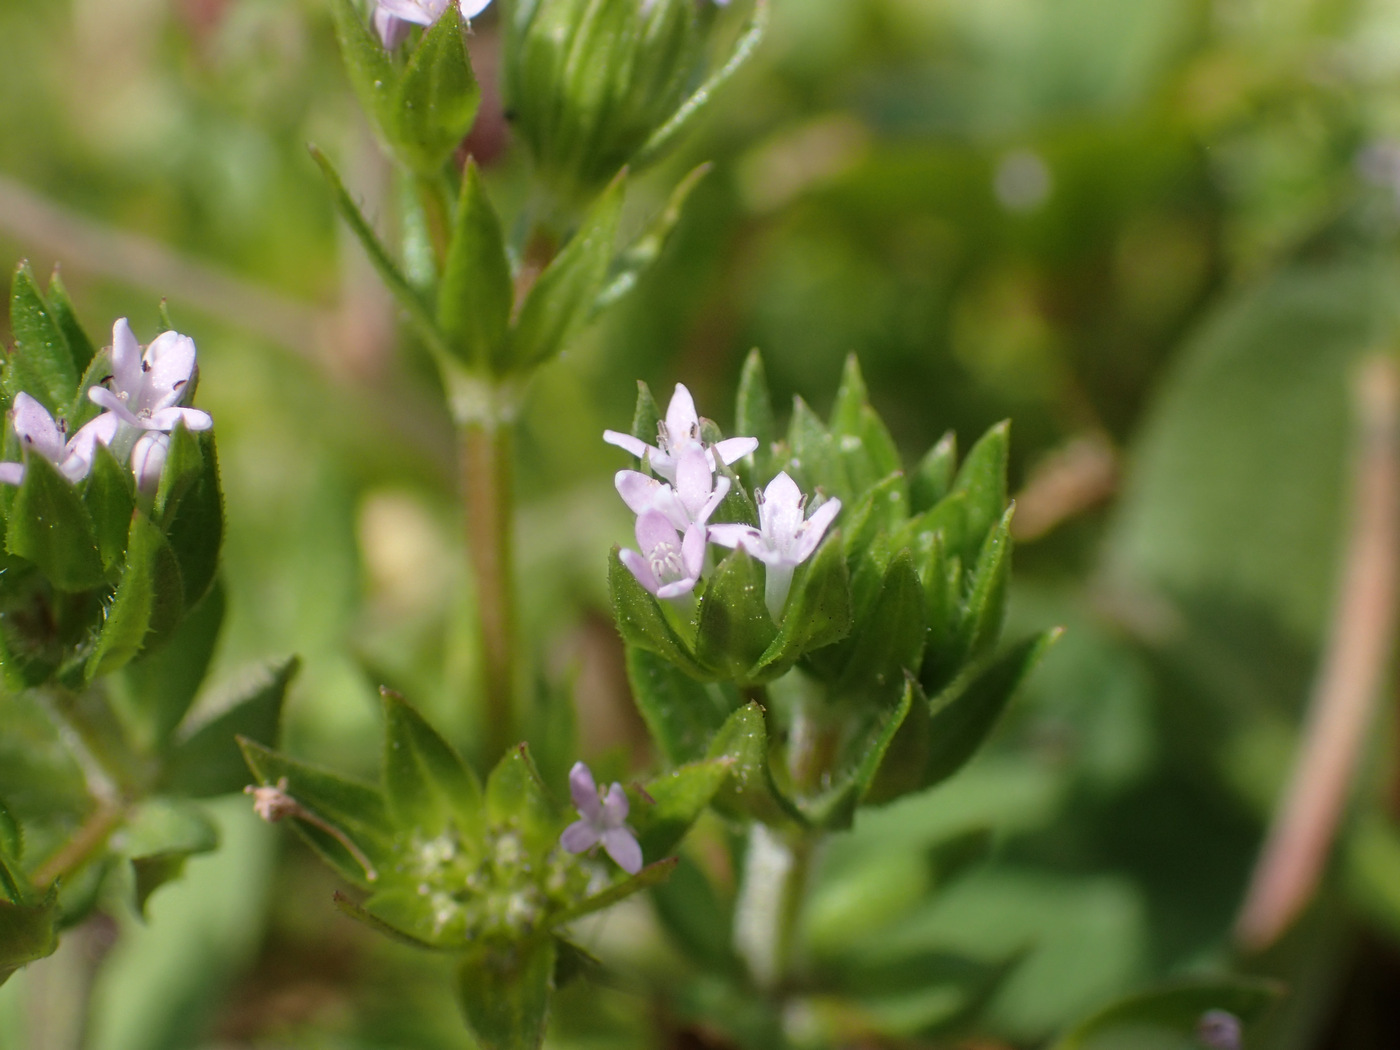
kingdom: Plantae
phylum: Tracheophyta
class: Magnoliopsida
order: Gentianales
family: Rubiaceae
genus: Sherardia
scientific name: Sherardia arvensis
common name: Field madder
